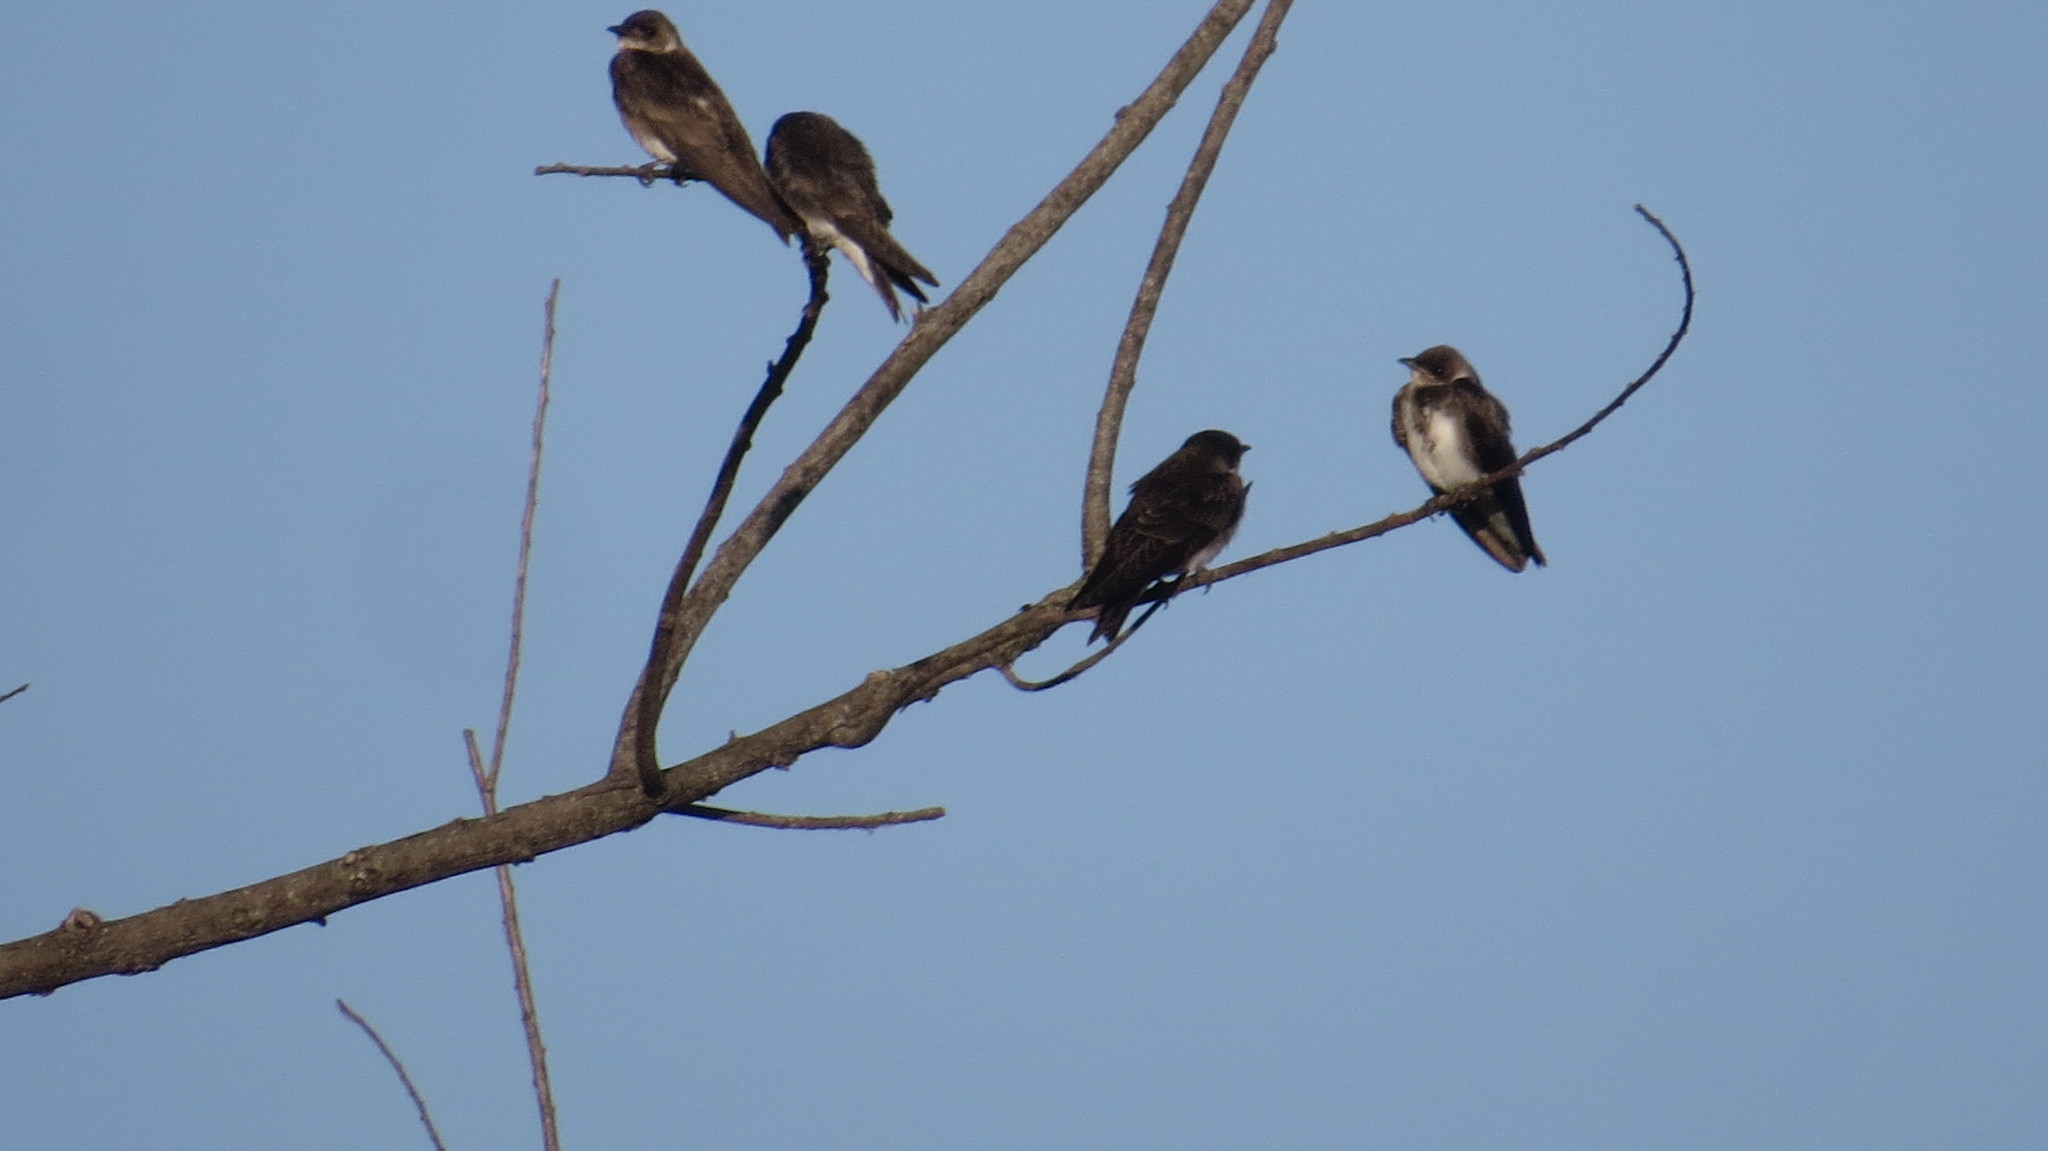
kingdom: Animalia
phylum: Chordata
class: Aves
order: Passeriformes
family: Hirundinidae
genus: Progne
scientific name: Progne tapera
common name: Brown-chested martin
